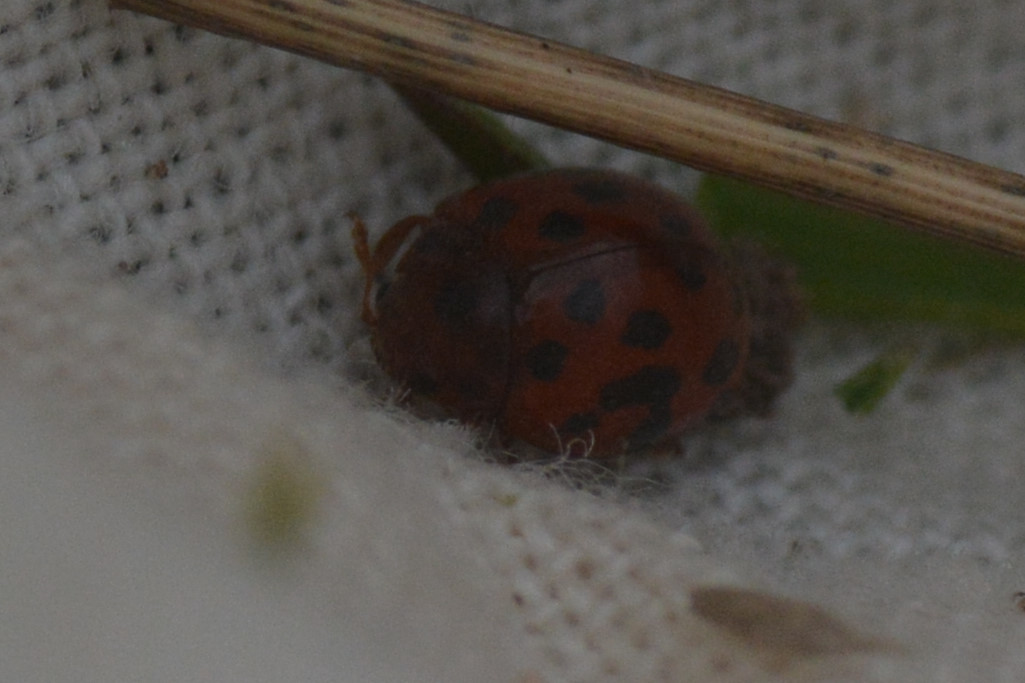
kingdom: Animalia
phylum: Arthropoda
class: Insecta
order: Coleoptera
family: Coccinellidae
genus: Subcoccinella
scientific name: Subcoccinella vigintiquatuorpunctata
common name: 24-spot ladybird
